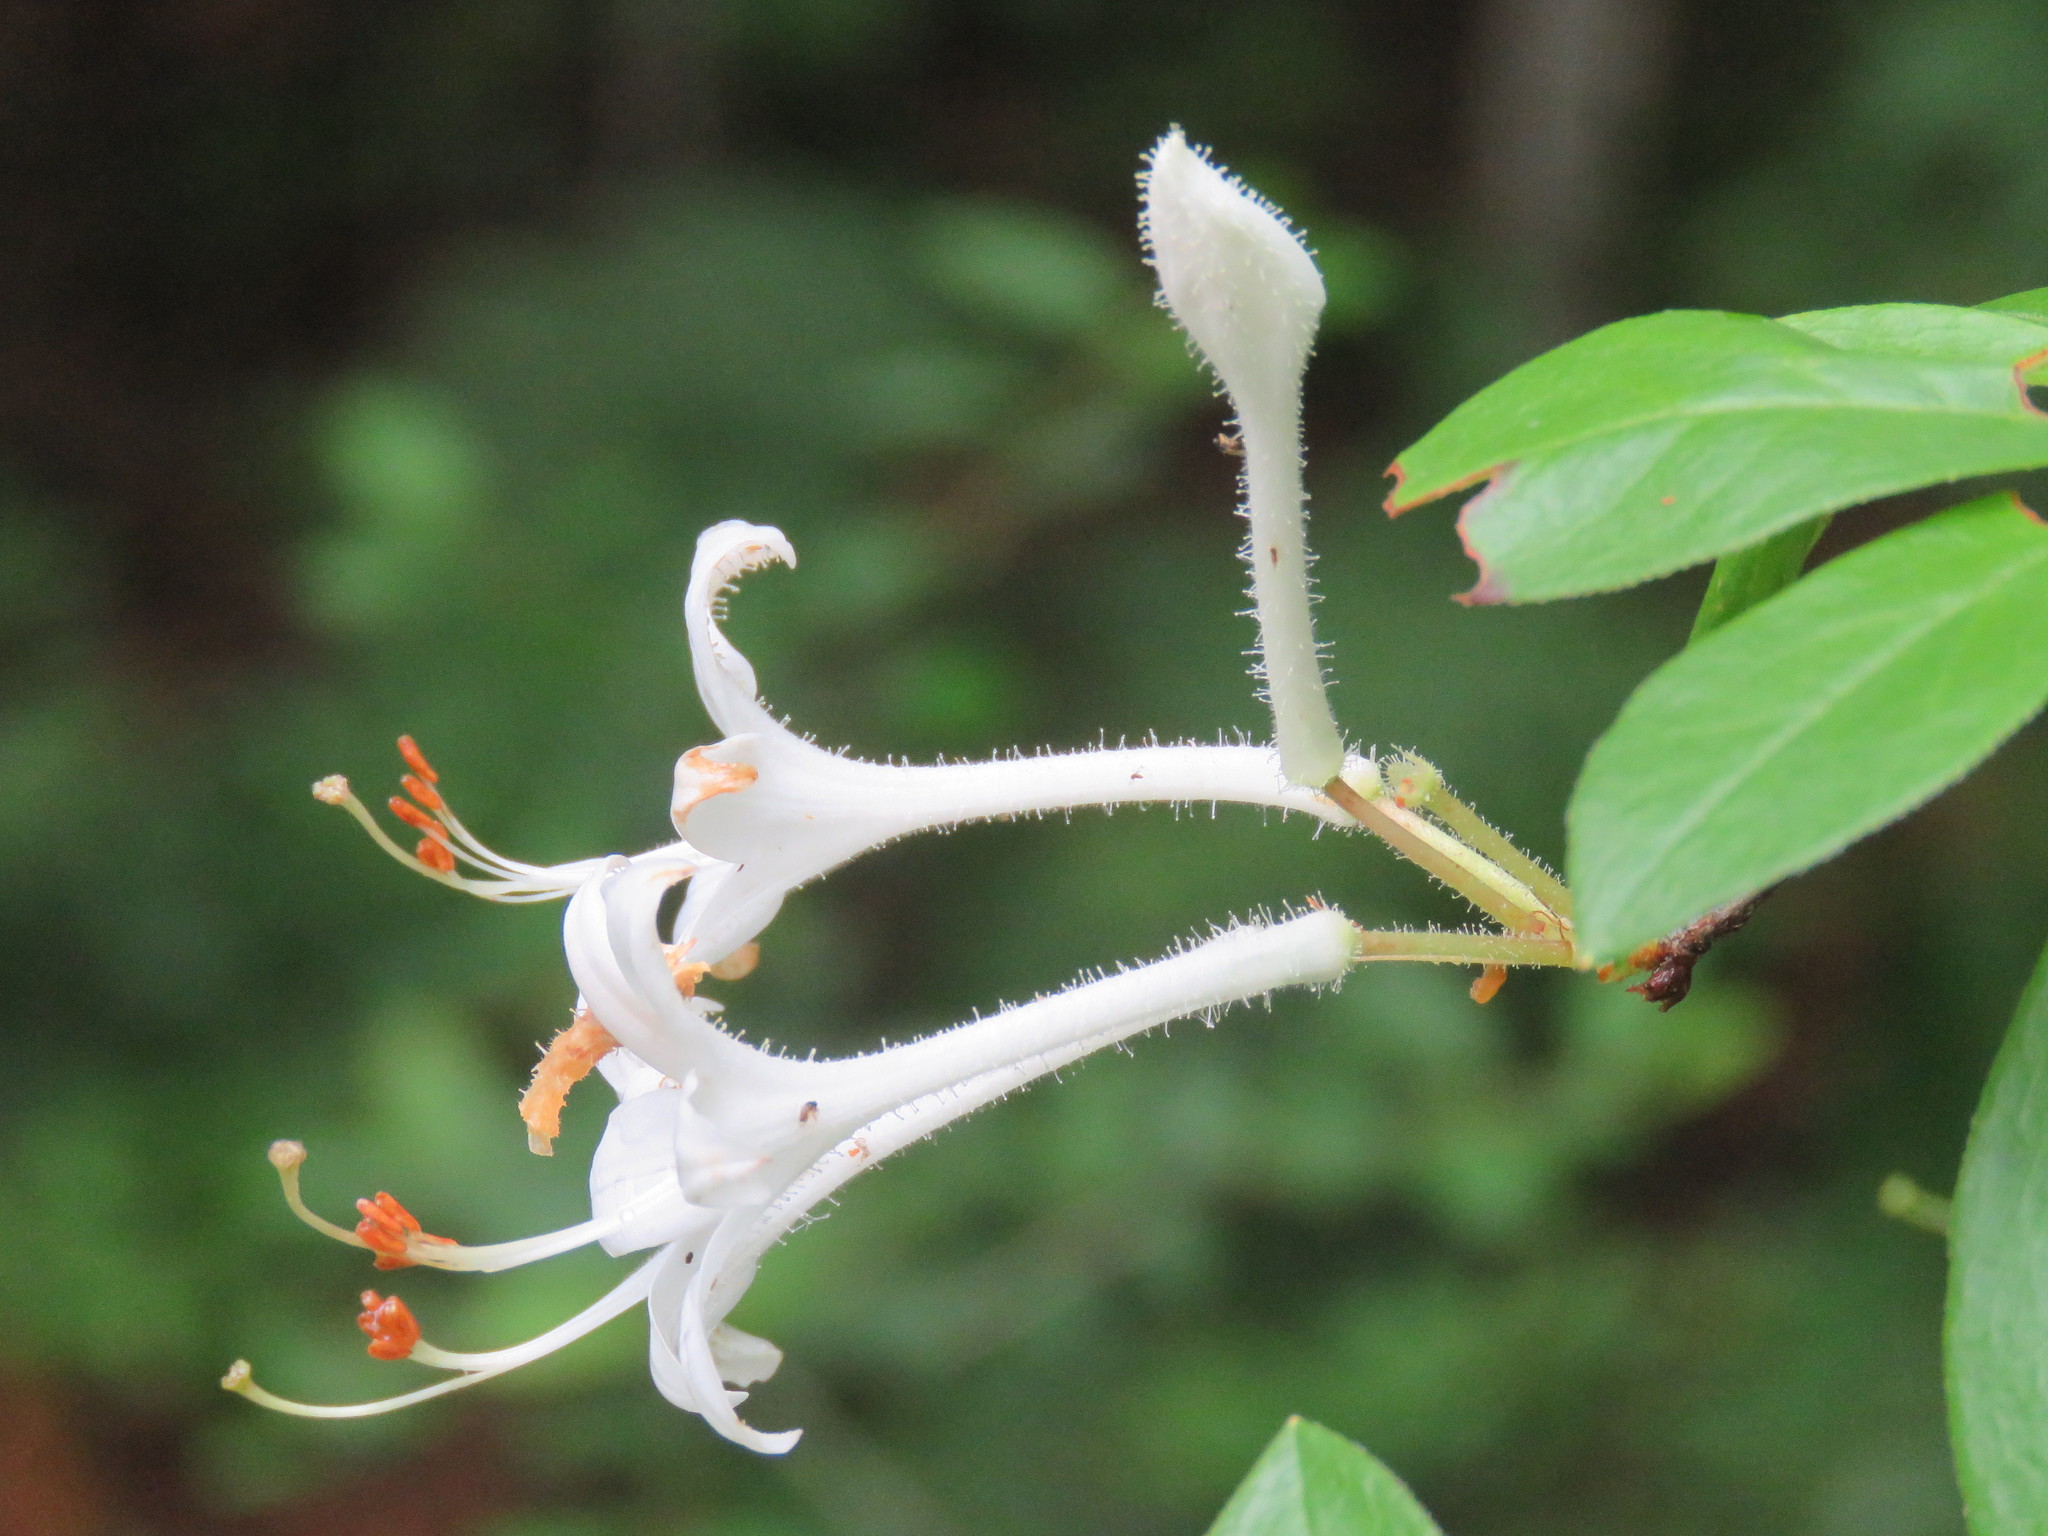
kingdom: Plantae
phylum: Tracheophyta
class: Magnoliopsida
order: Ericales
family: Ericaceae
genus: Rhododendron
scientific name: Rhododendron viscosum
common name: Clammy azalea
